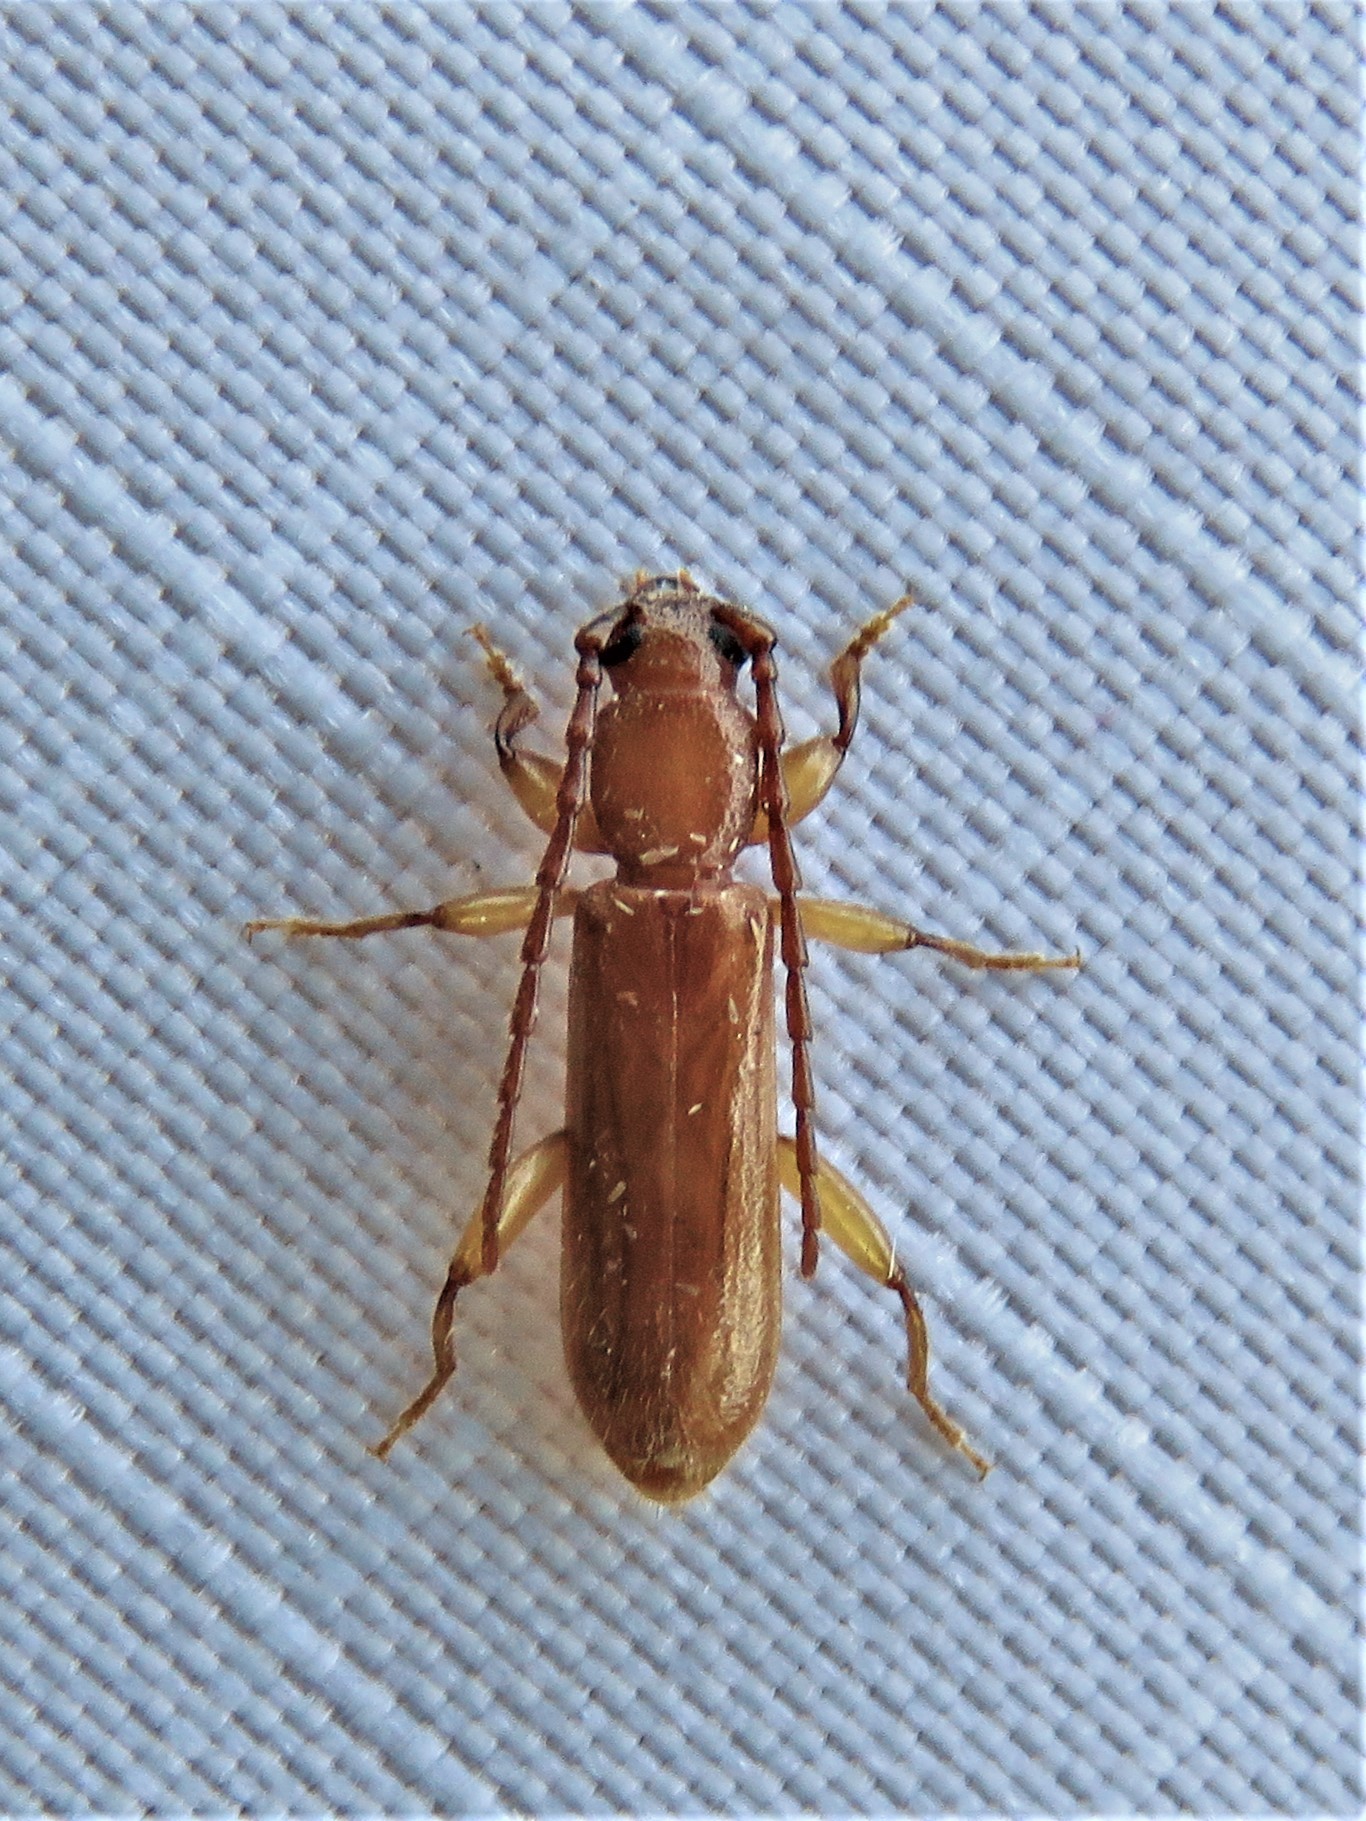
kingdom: Animalia
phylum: Arthropoda
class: Insecta
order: Coleoptera
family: Cerambycidae
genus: Smodicum
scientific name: Smodicum cucujiforme
